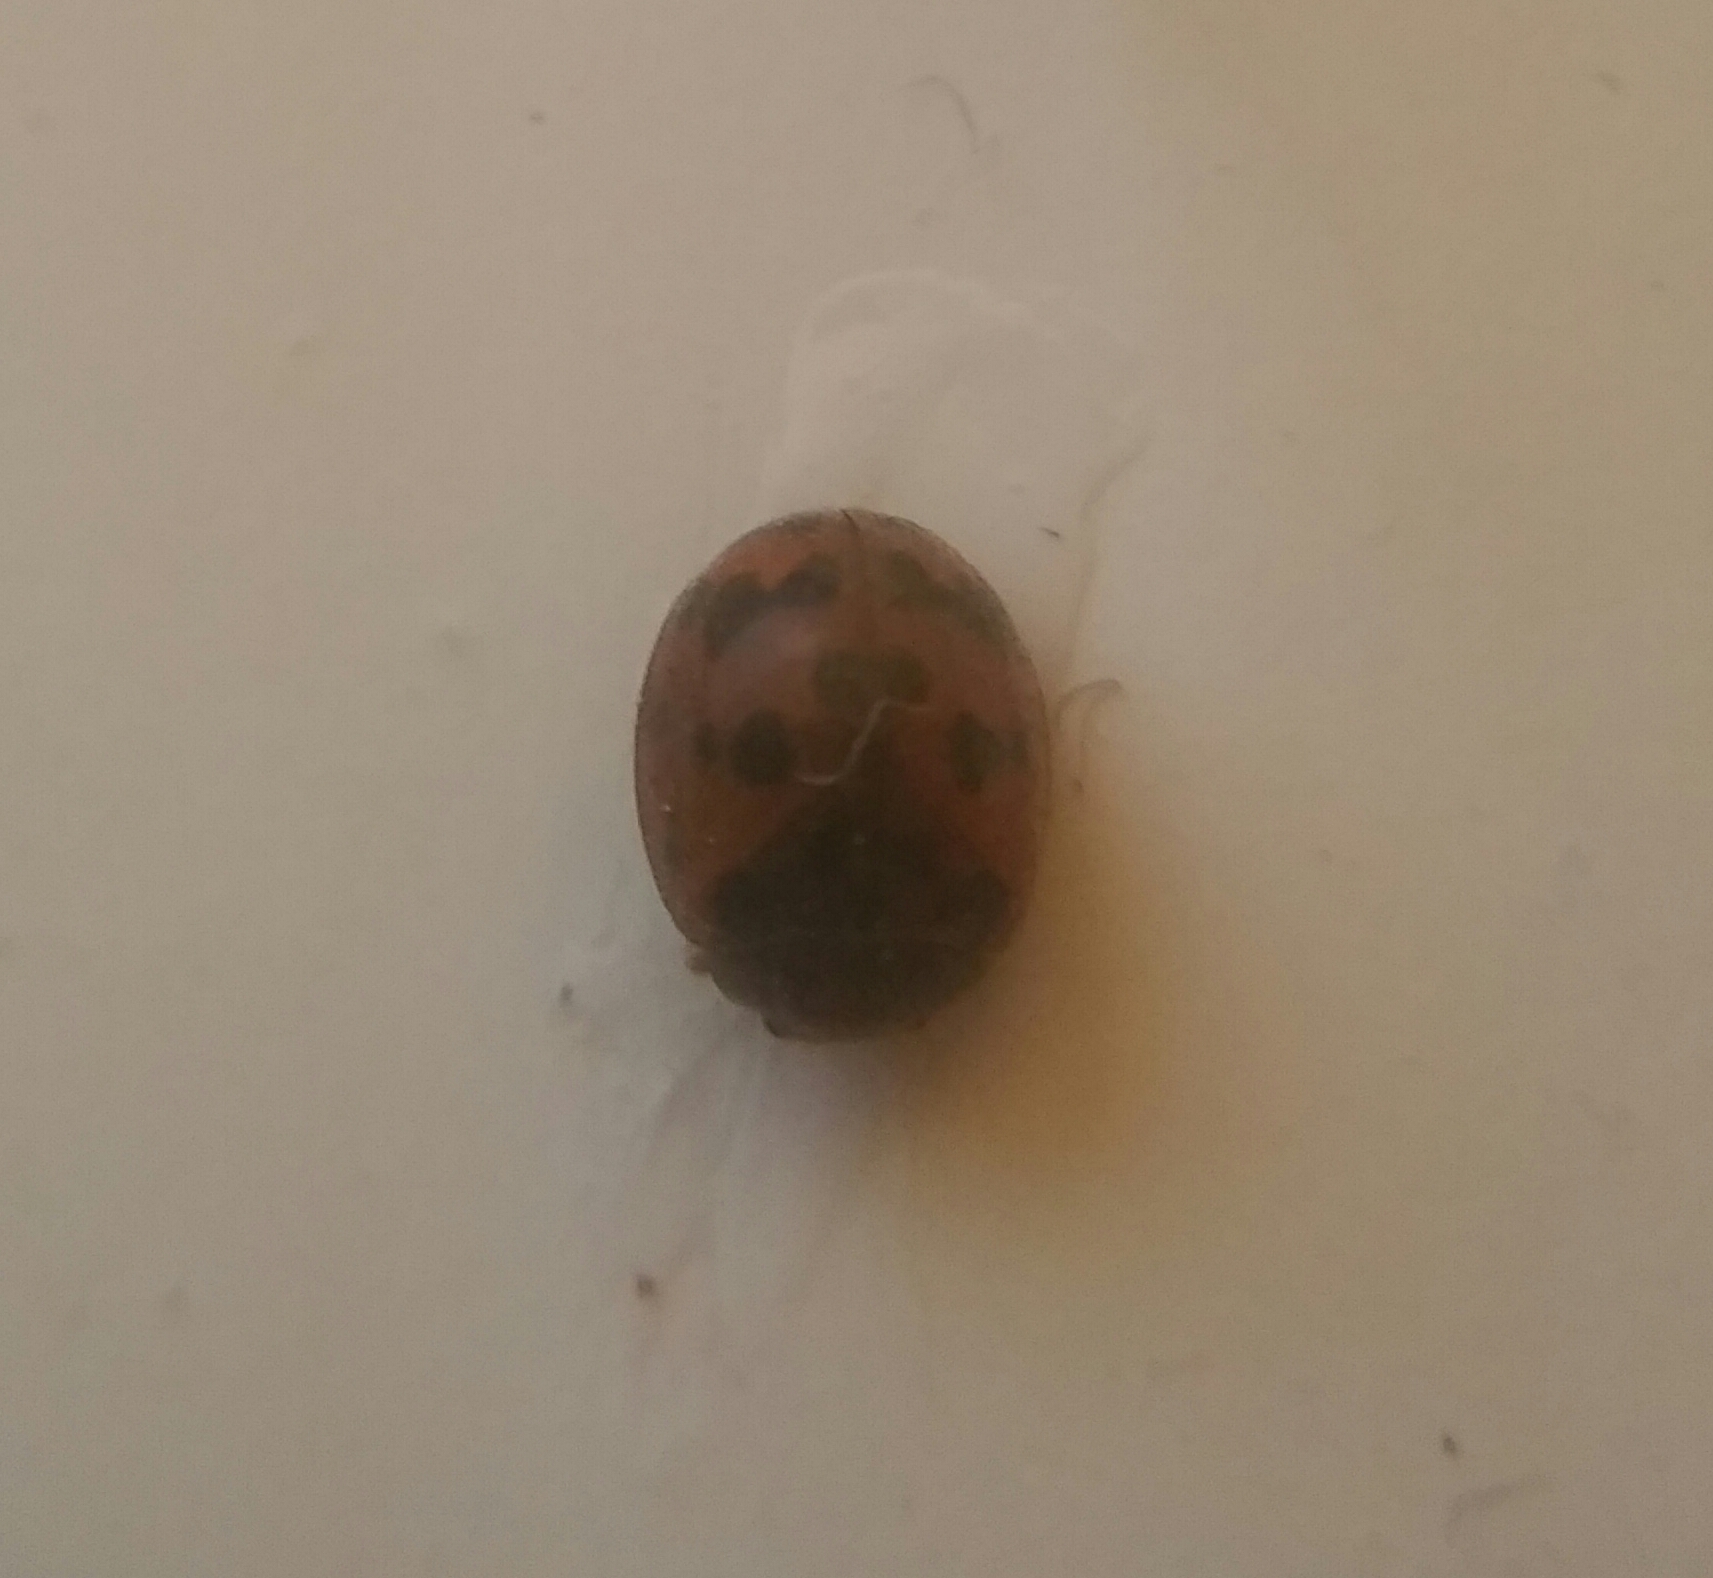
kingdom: Animalia
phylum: Arthropoda
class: Insecta
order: Coleoptera
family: Coccinellidae
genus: Subcoccinella
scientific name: Subcoccinella vigintiquatuorpunctata
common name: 24-spot ladybird
